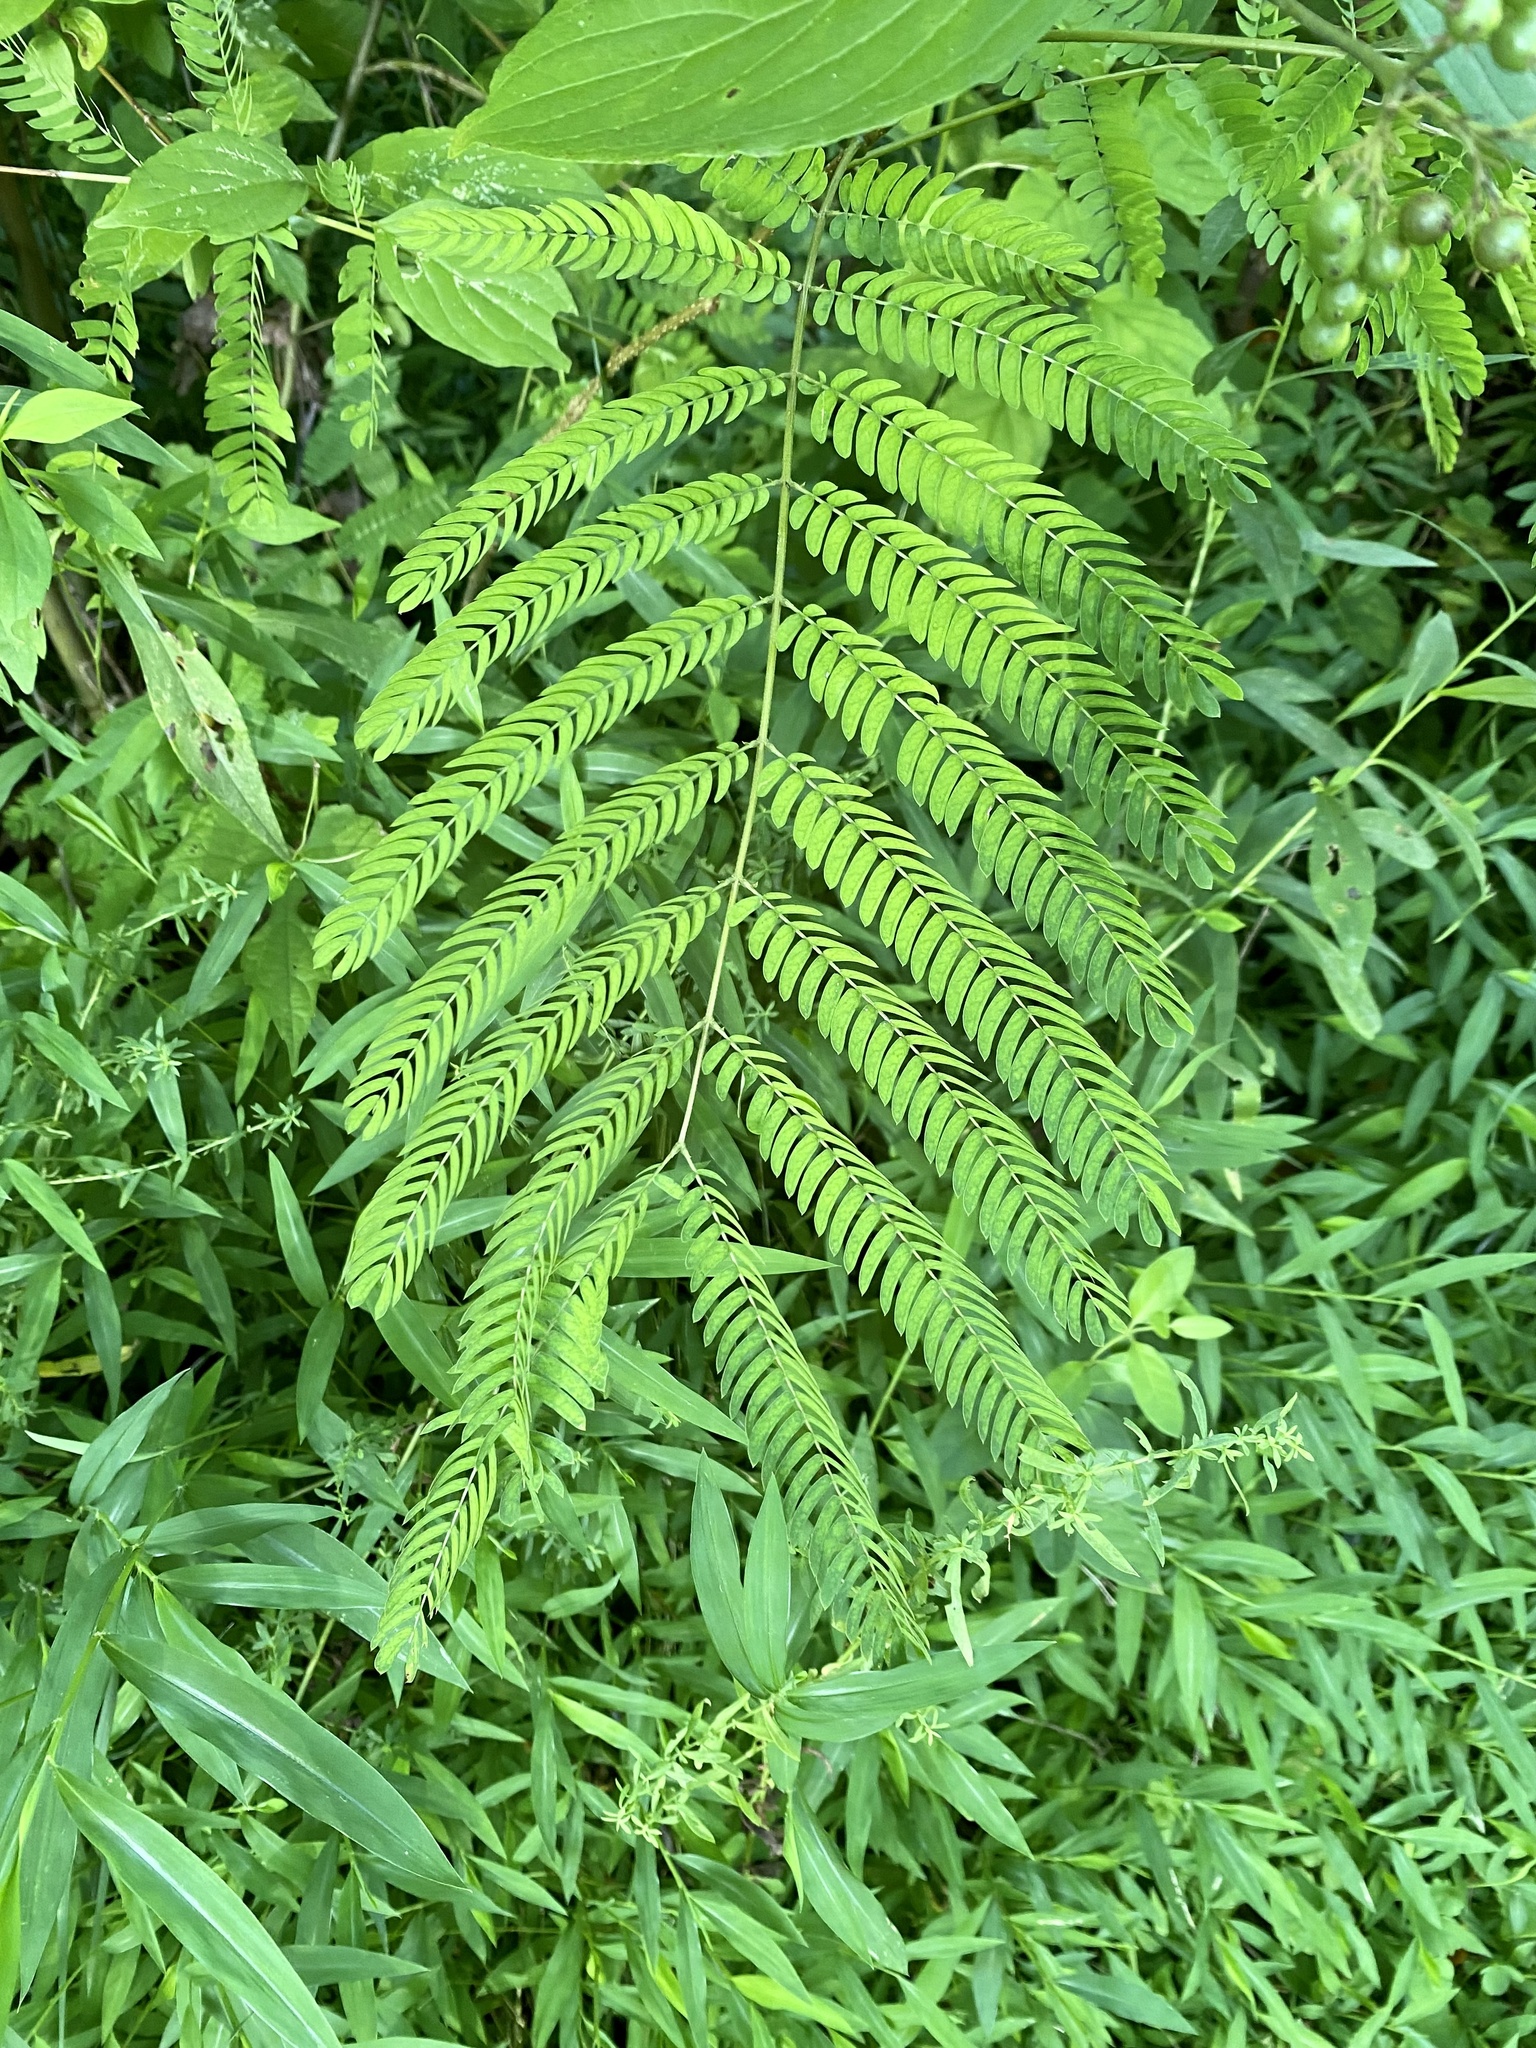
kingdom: Plantae
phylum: Tracheophyta
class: Magnoliopsida
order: Fabales
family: Fabaceae
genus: Albizia
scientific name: Albizia julibrissin
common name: Silktree
